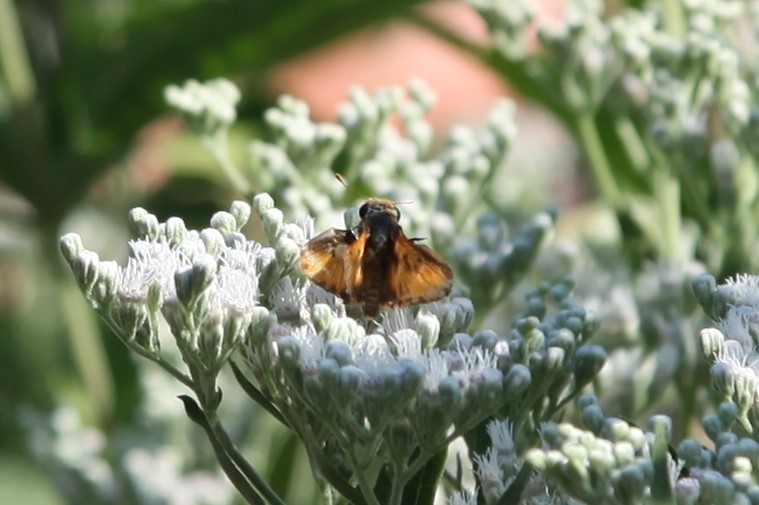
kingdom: Animalia
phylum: Arthropoda
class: Insecta
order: Lepidoptera
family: Hesperiidae
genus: Atalopedes
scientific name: Atalopedes
